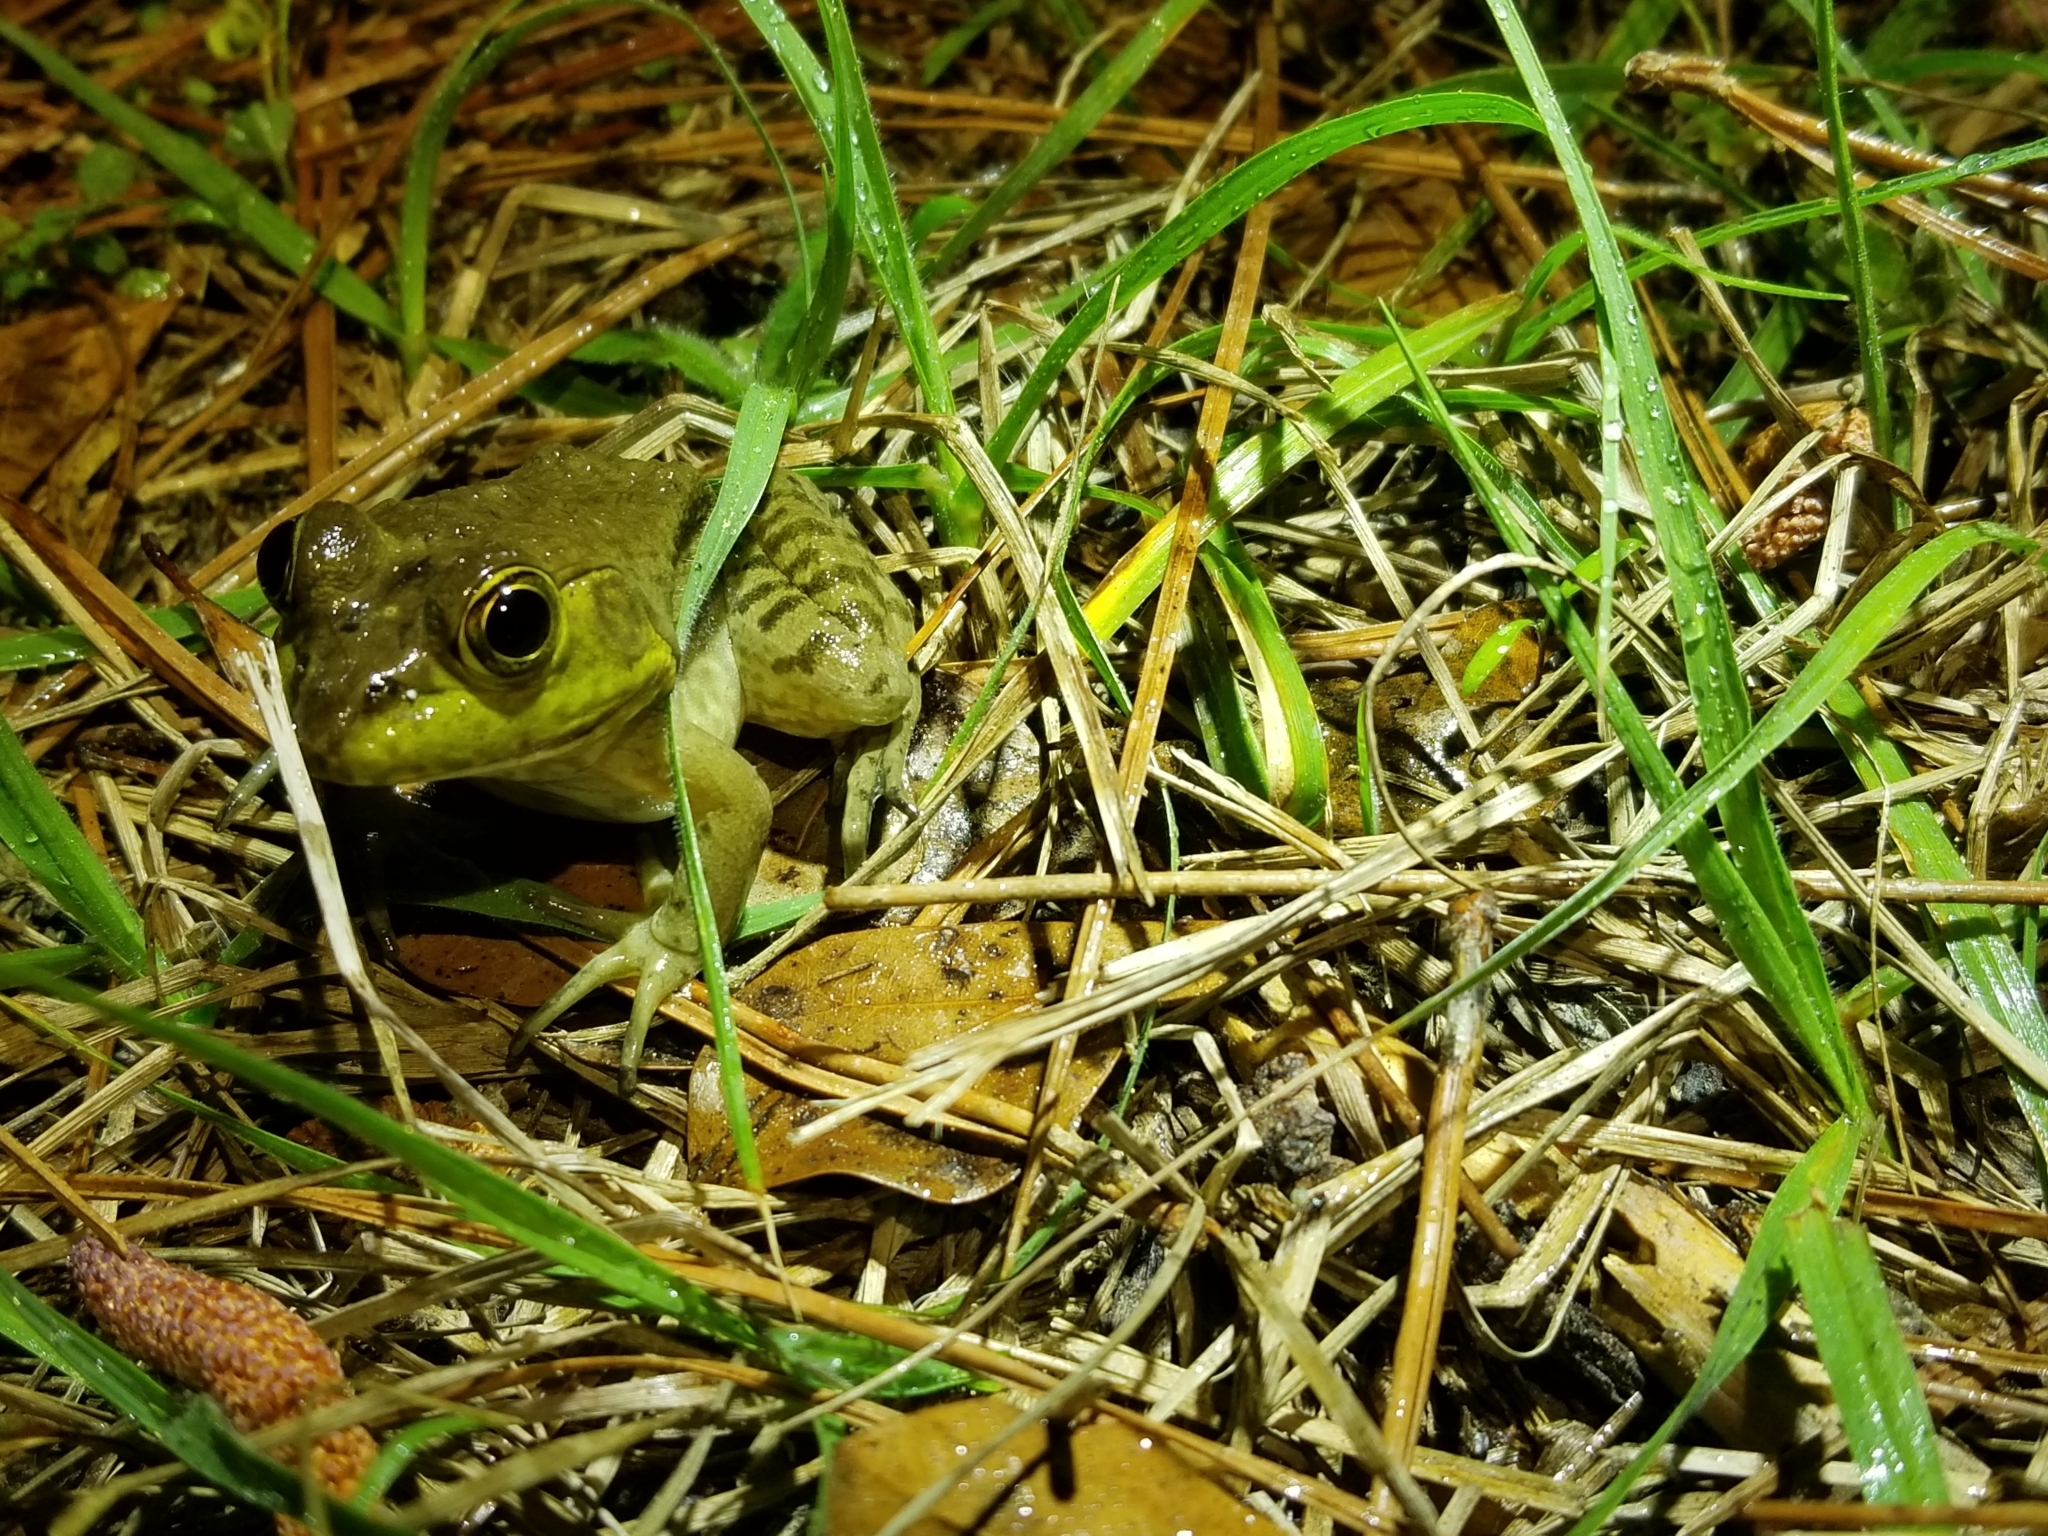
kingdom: Animalia
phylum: Chordata
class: Amphibia
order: Anura
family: Ranidae
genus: Lithobates
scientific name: Lithobates catesbeianus
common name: American bullfrog
